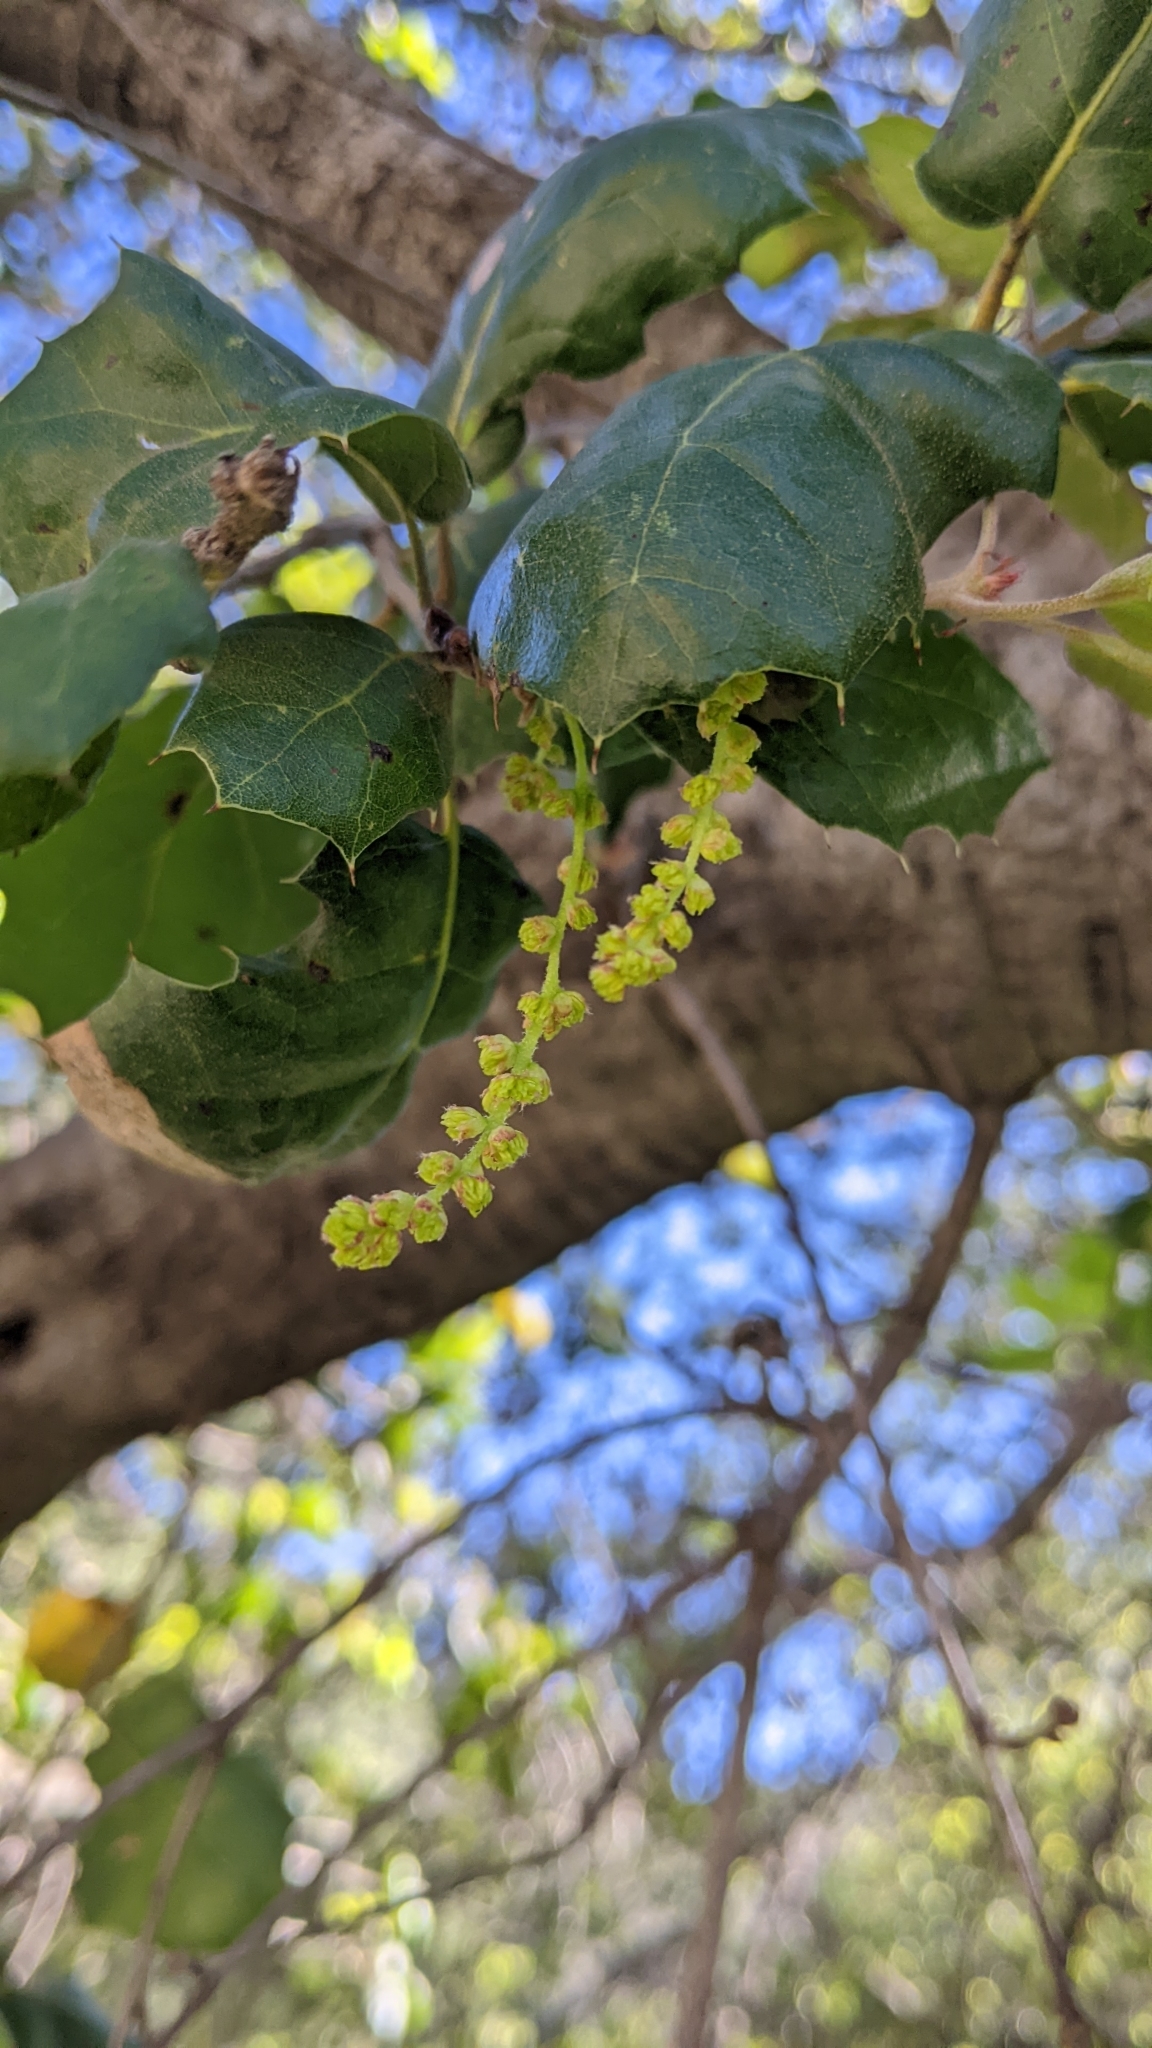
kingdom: Plantae
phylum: Tracheophyta
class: Magnoliopsida
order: Fagales
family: Fagaceae
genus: Quercus
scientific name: Quercus agrifolia
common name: California live oak
